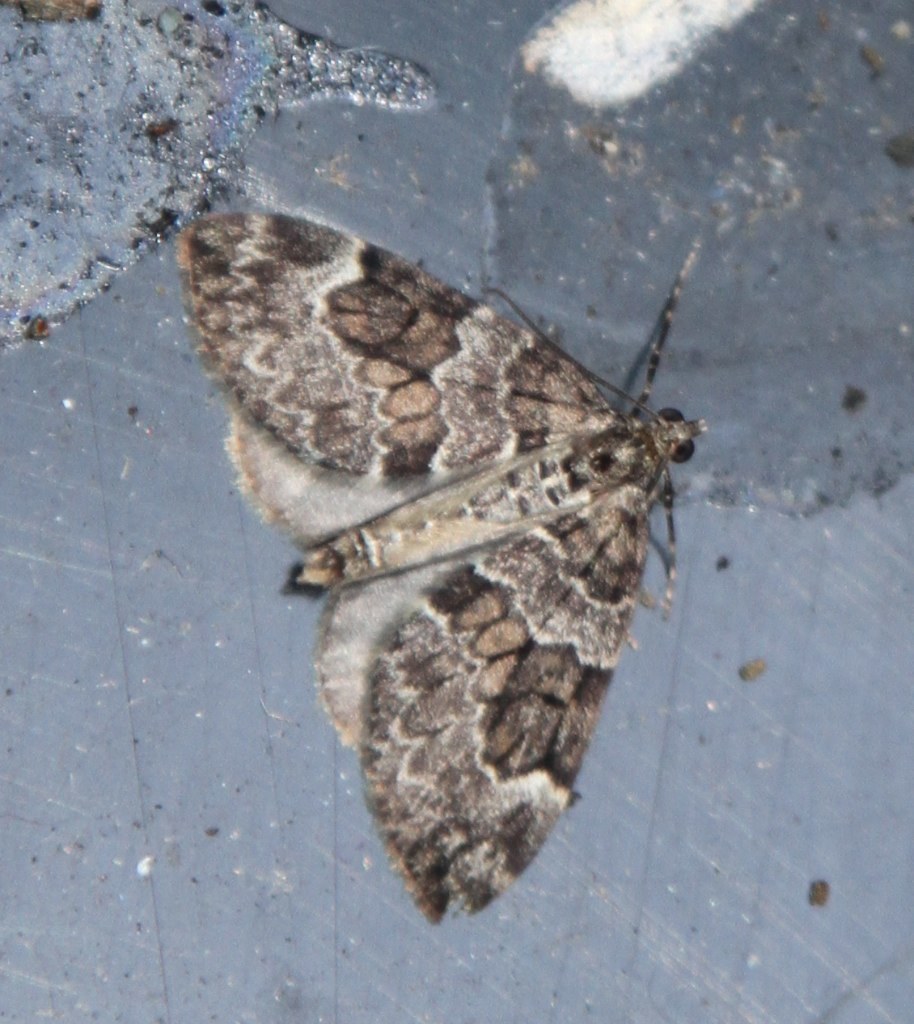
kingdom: Animalia
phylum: Arthropoda
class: Insecta
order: Lepidoptera
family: Geometridae
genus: Thera
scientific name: Thera britannica
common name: Spruce carpet
